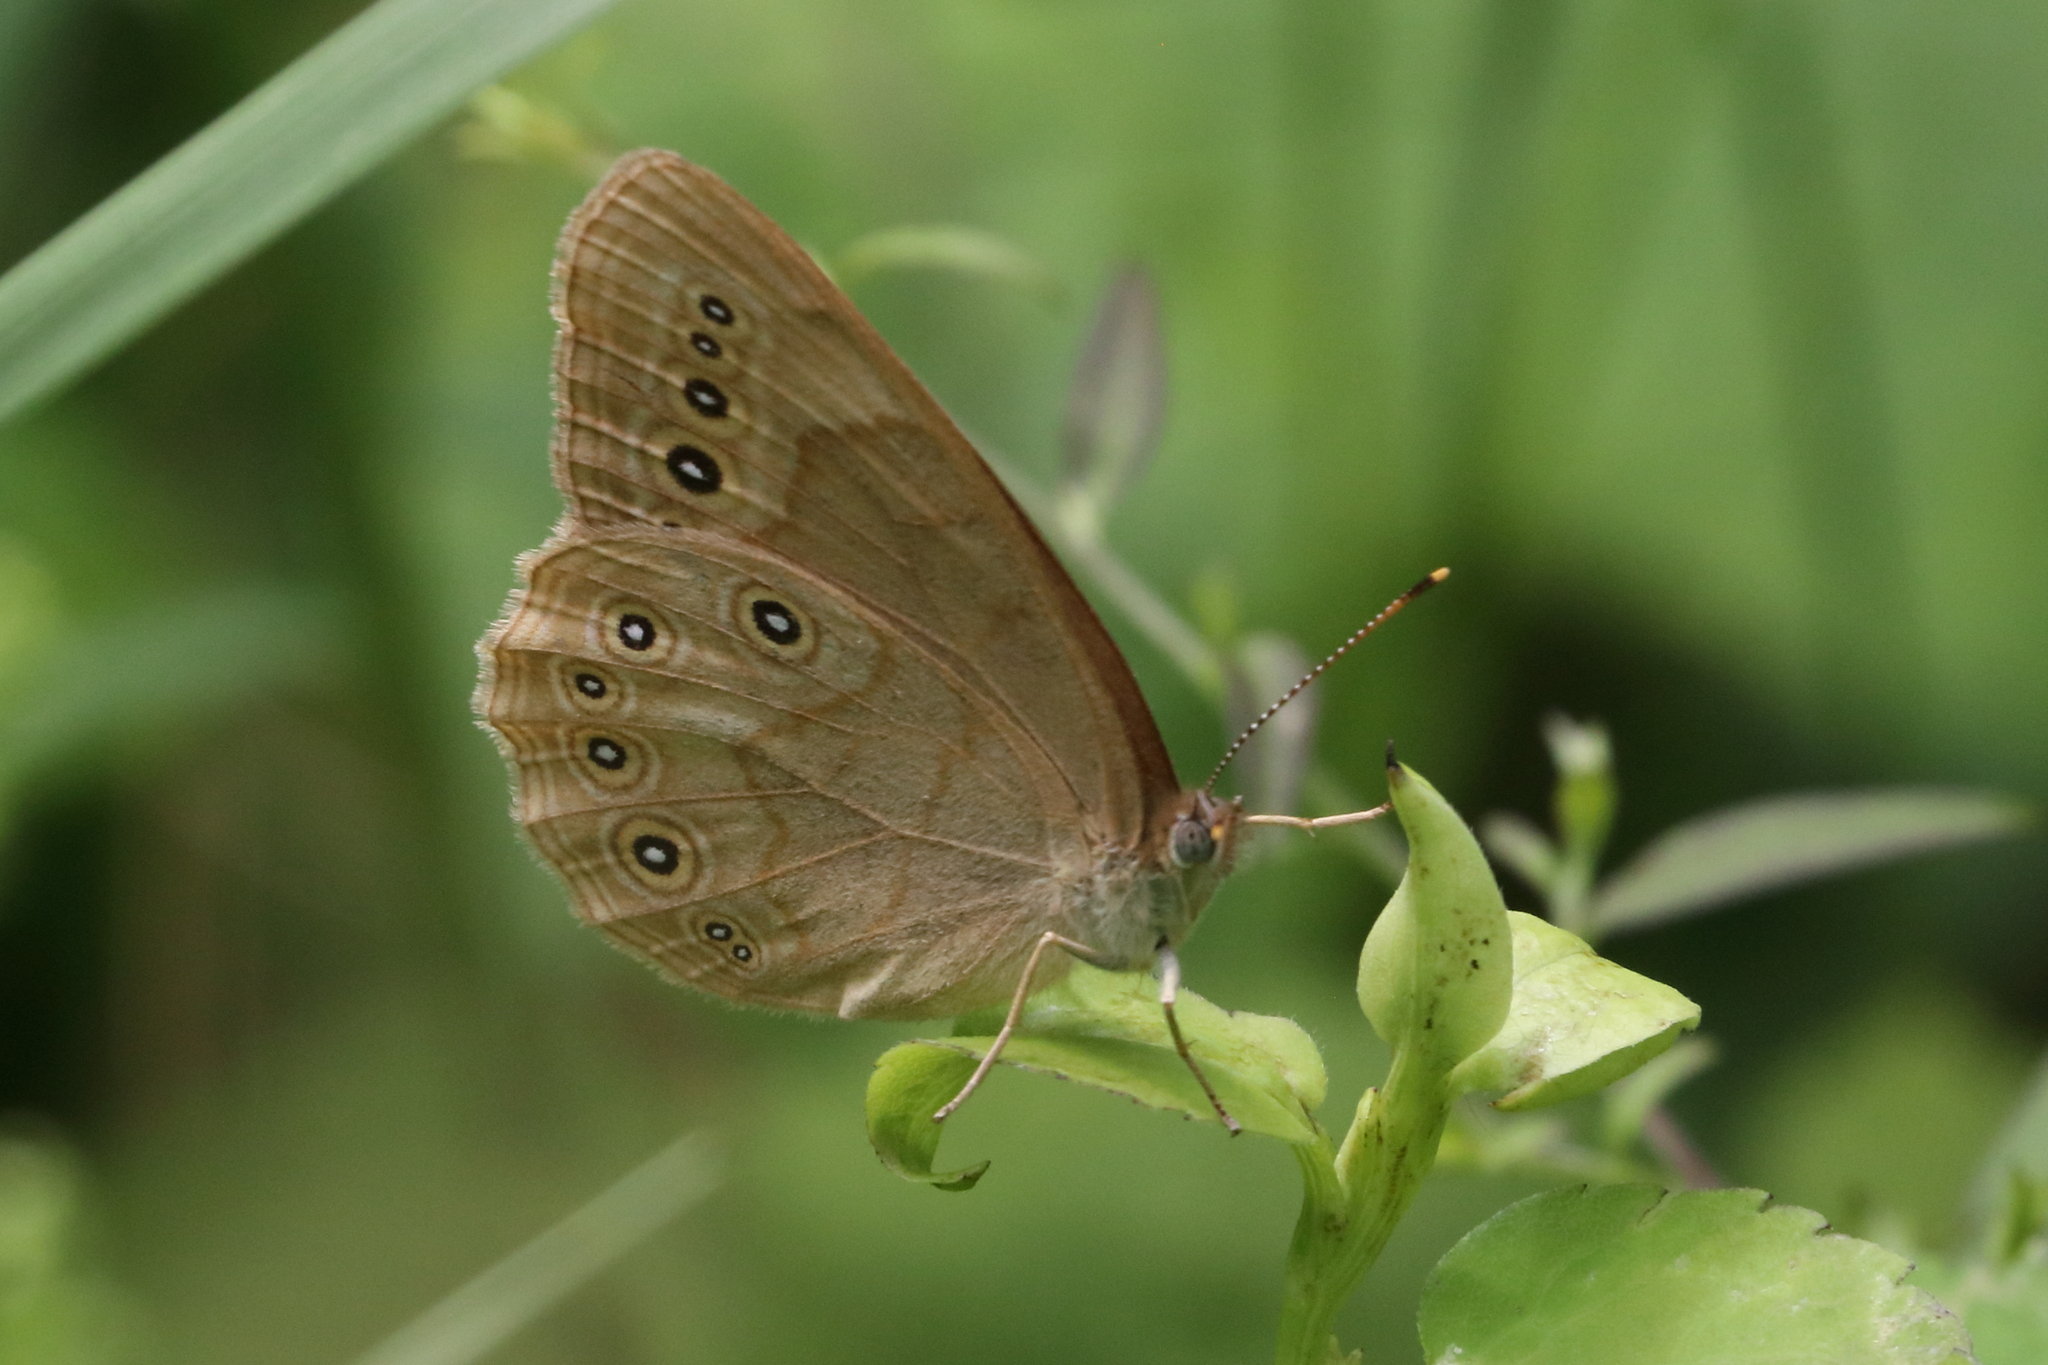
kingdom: Animalia
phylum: Arthropoda
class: Insecta
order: Lepidoptera
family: Nymphalidae
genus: Lethe
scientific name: Lethe eurydice
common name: Eyed brown
